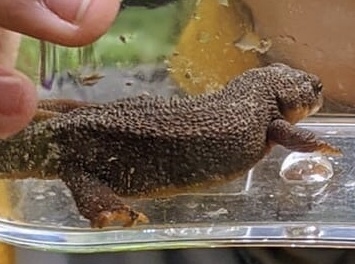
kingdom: Animalia
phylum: Chordata
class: Amphibia
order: Caudata
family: Salamandridae
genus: Taricha
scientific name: Taricha granulosa
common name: Roughskin newt
